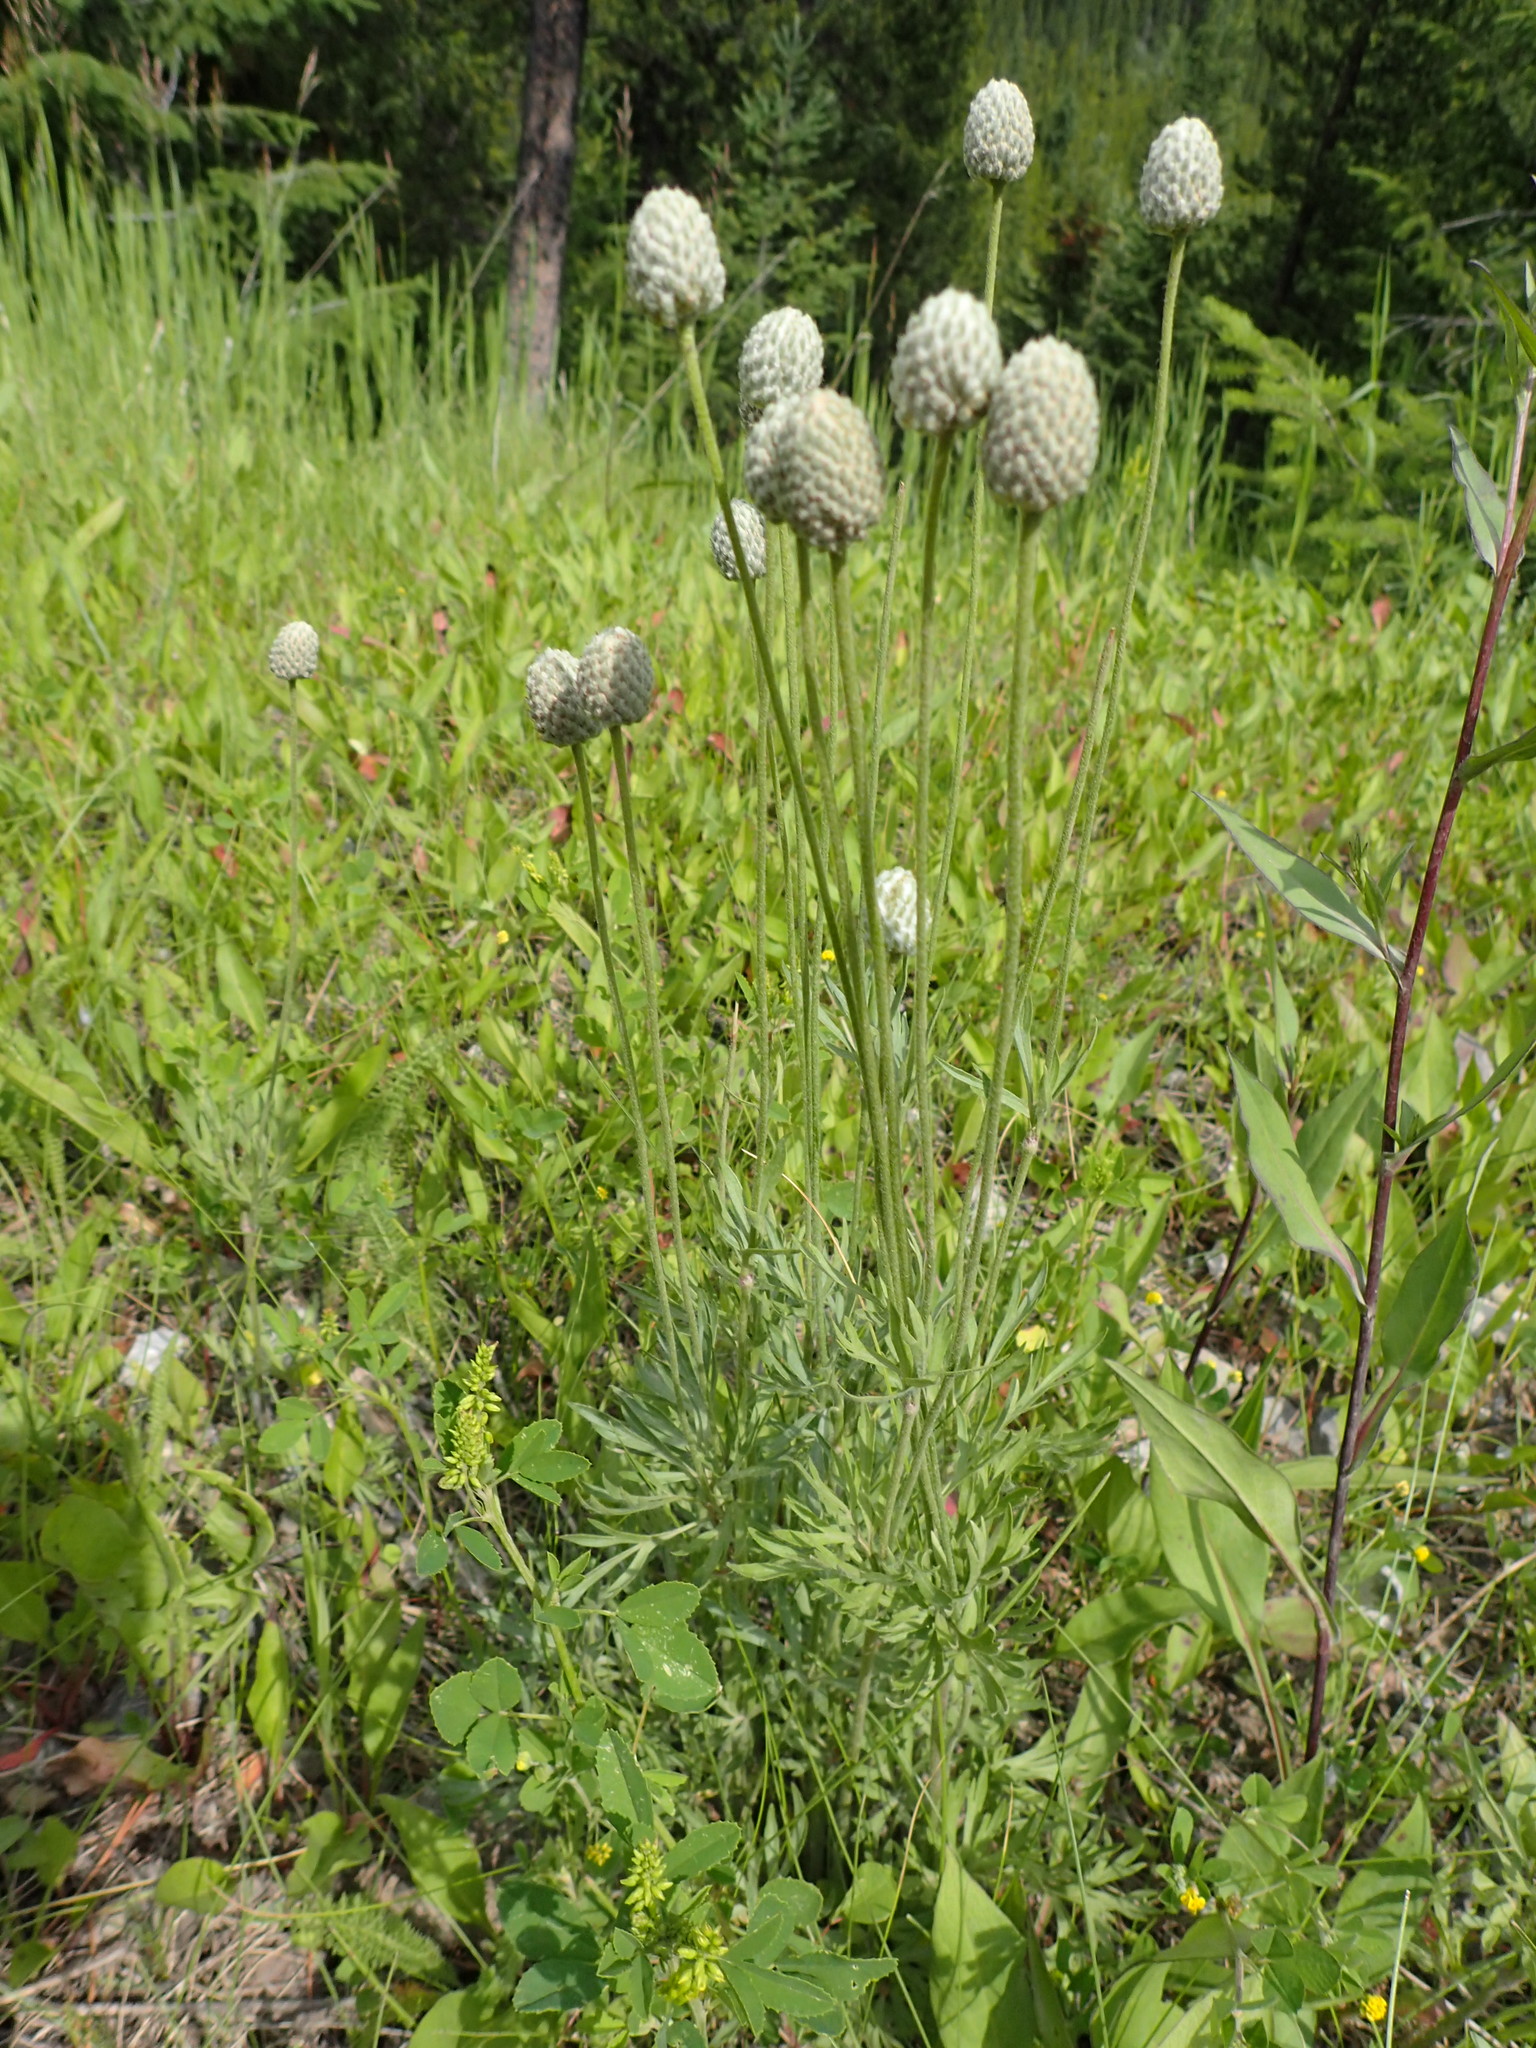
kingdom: Plantae
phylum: Tracheophyta
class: Magnoliopsida
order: Ranunculales
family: Ranunculaceae
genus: Anemone
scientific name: Anemone multifida
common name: Bird's-foot anemone
